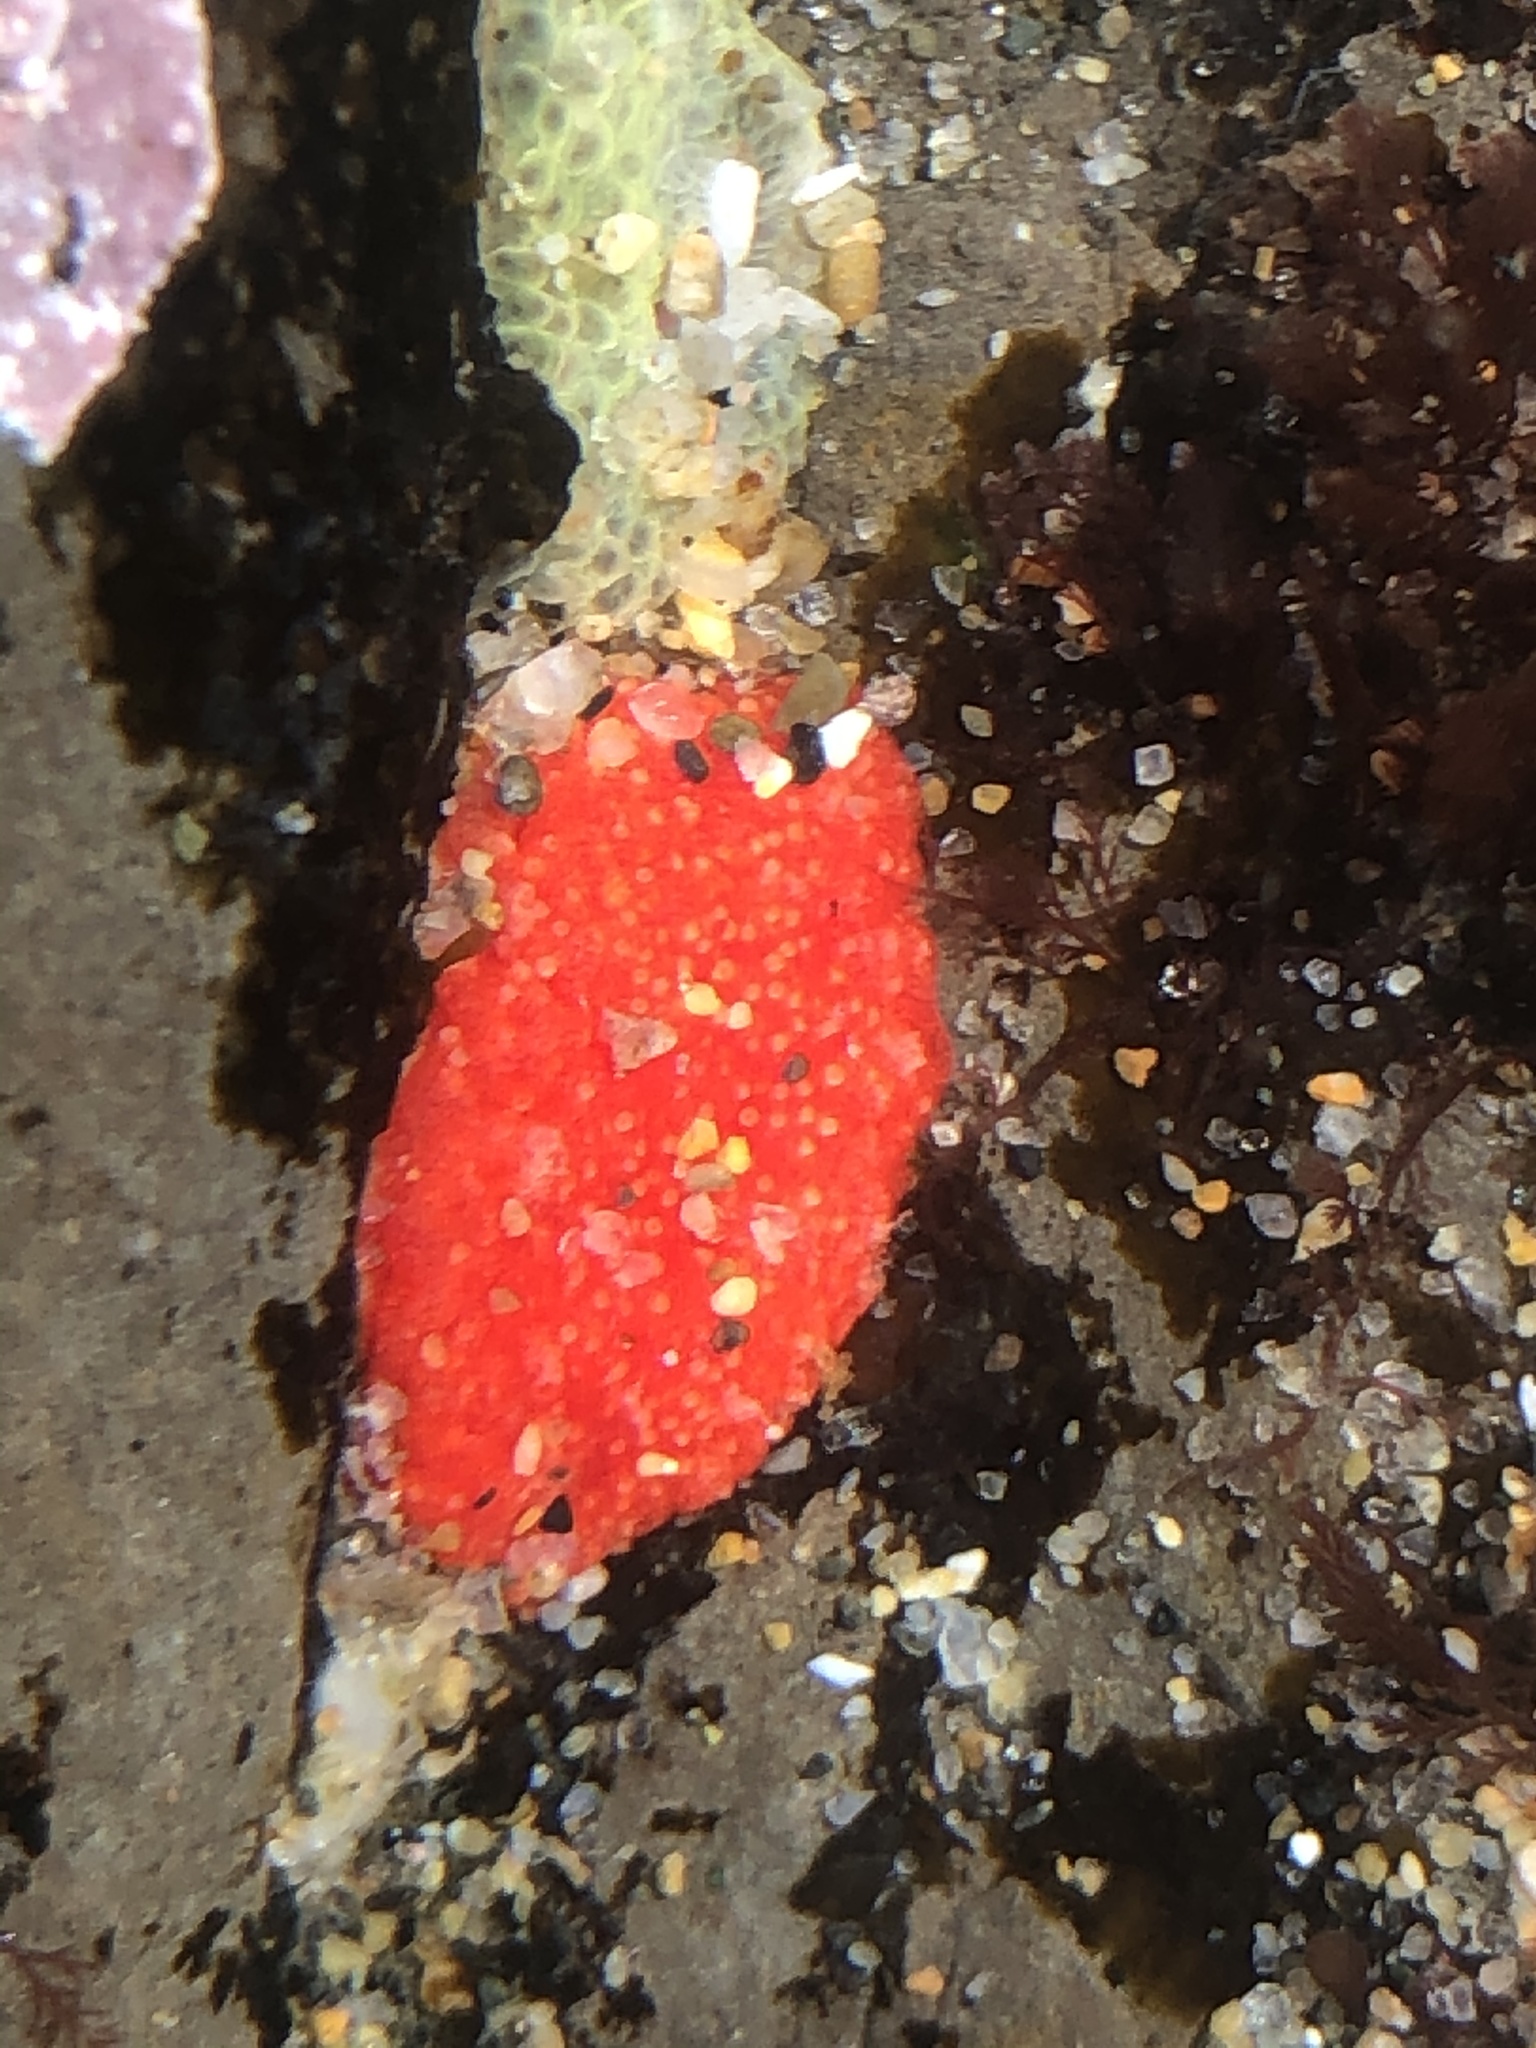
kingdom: Animalia
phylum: Echinodermata
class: Holothuroidea
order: Dendrochirotida
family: Psolidae
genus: Lissothuria
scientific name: Lissothuria nutriens
